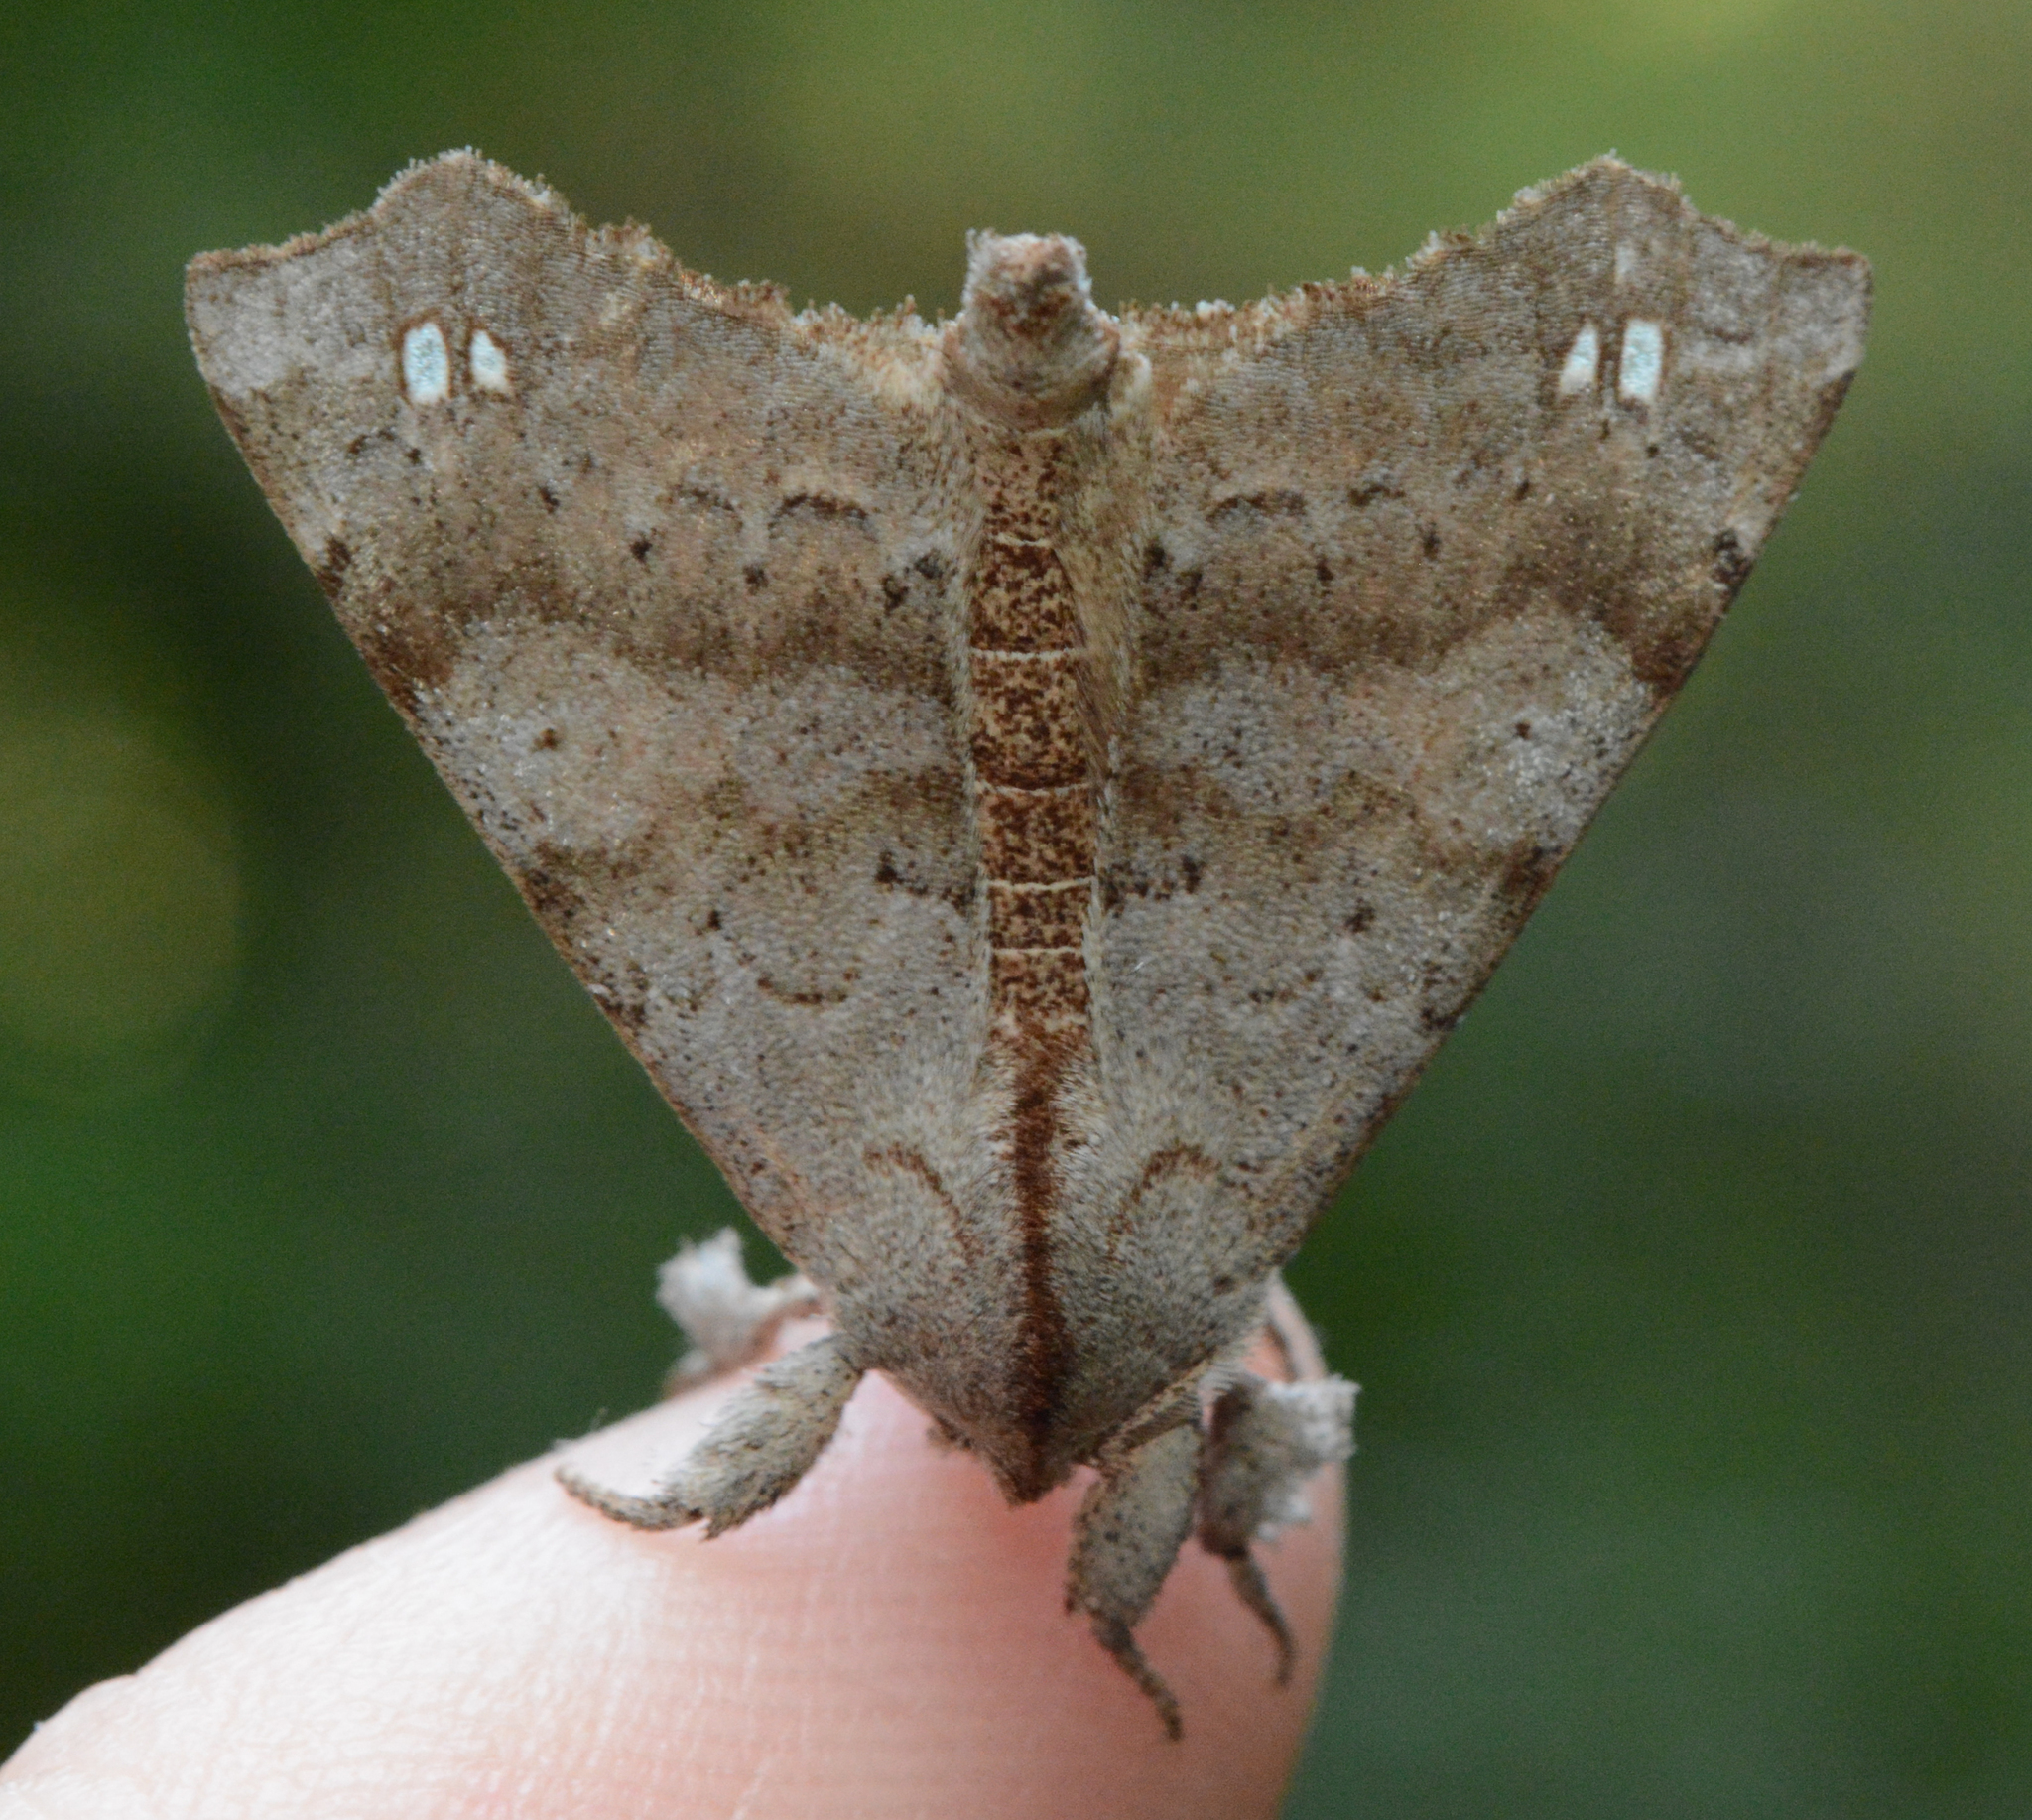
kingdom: Animalia
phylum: Arthropoda
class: Insecta
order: Lepidoptera
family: Apatelodidae
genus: Olceclostera
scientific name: Olceclostera angelica
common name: Angel moth
